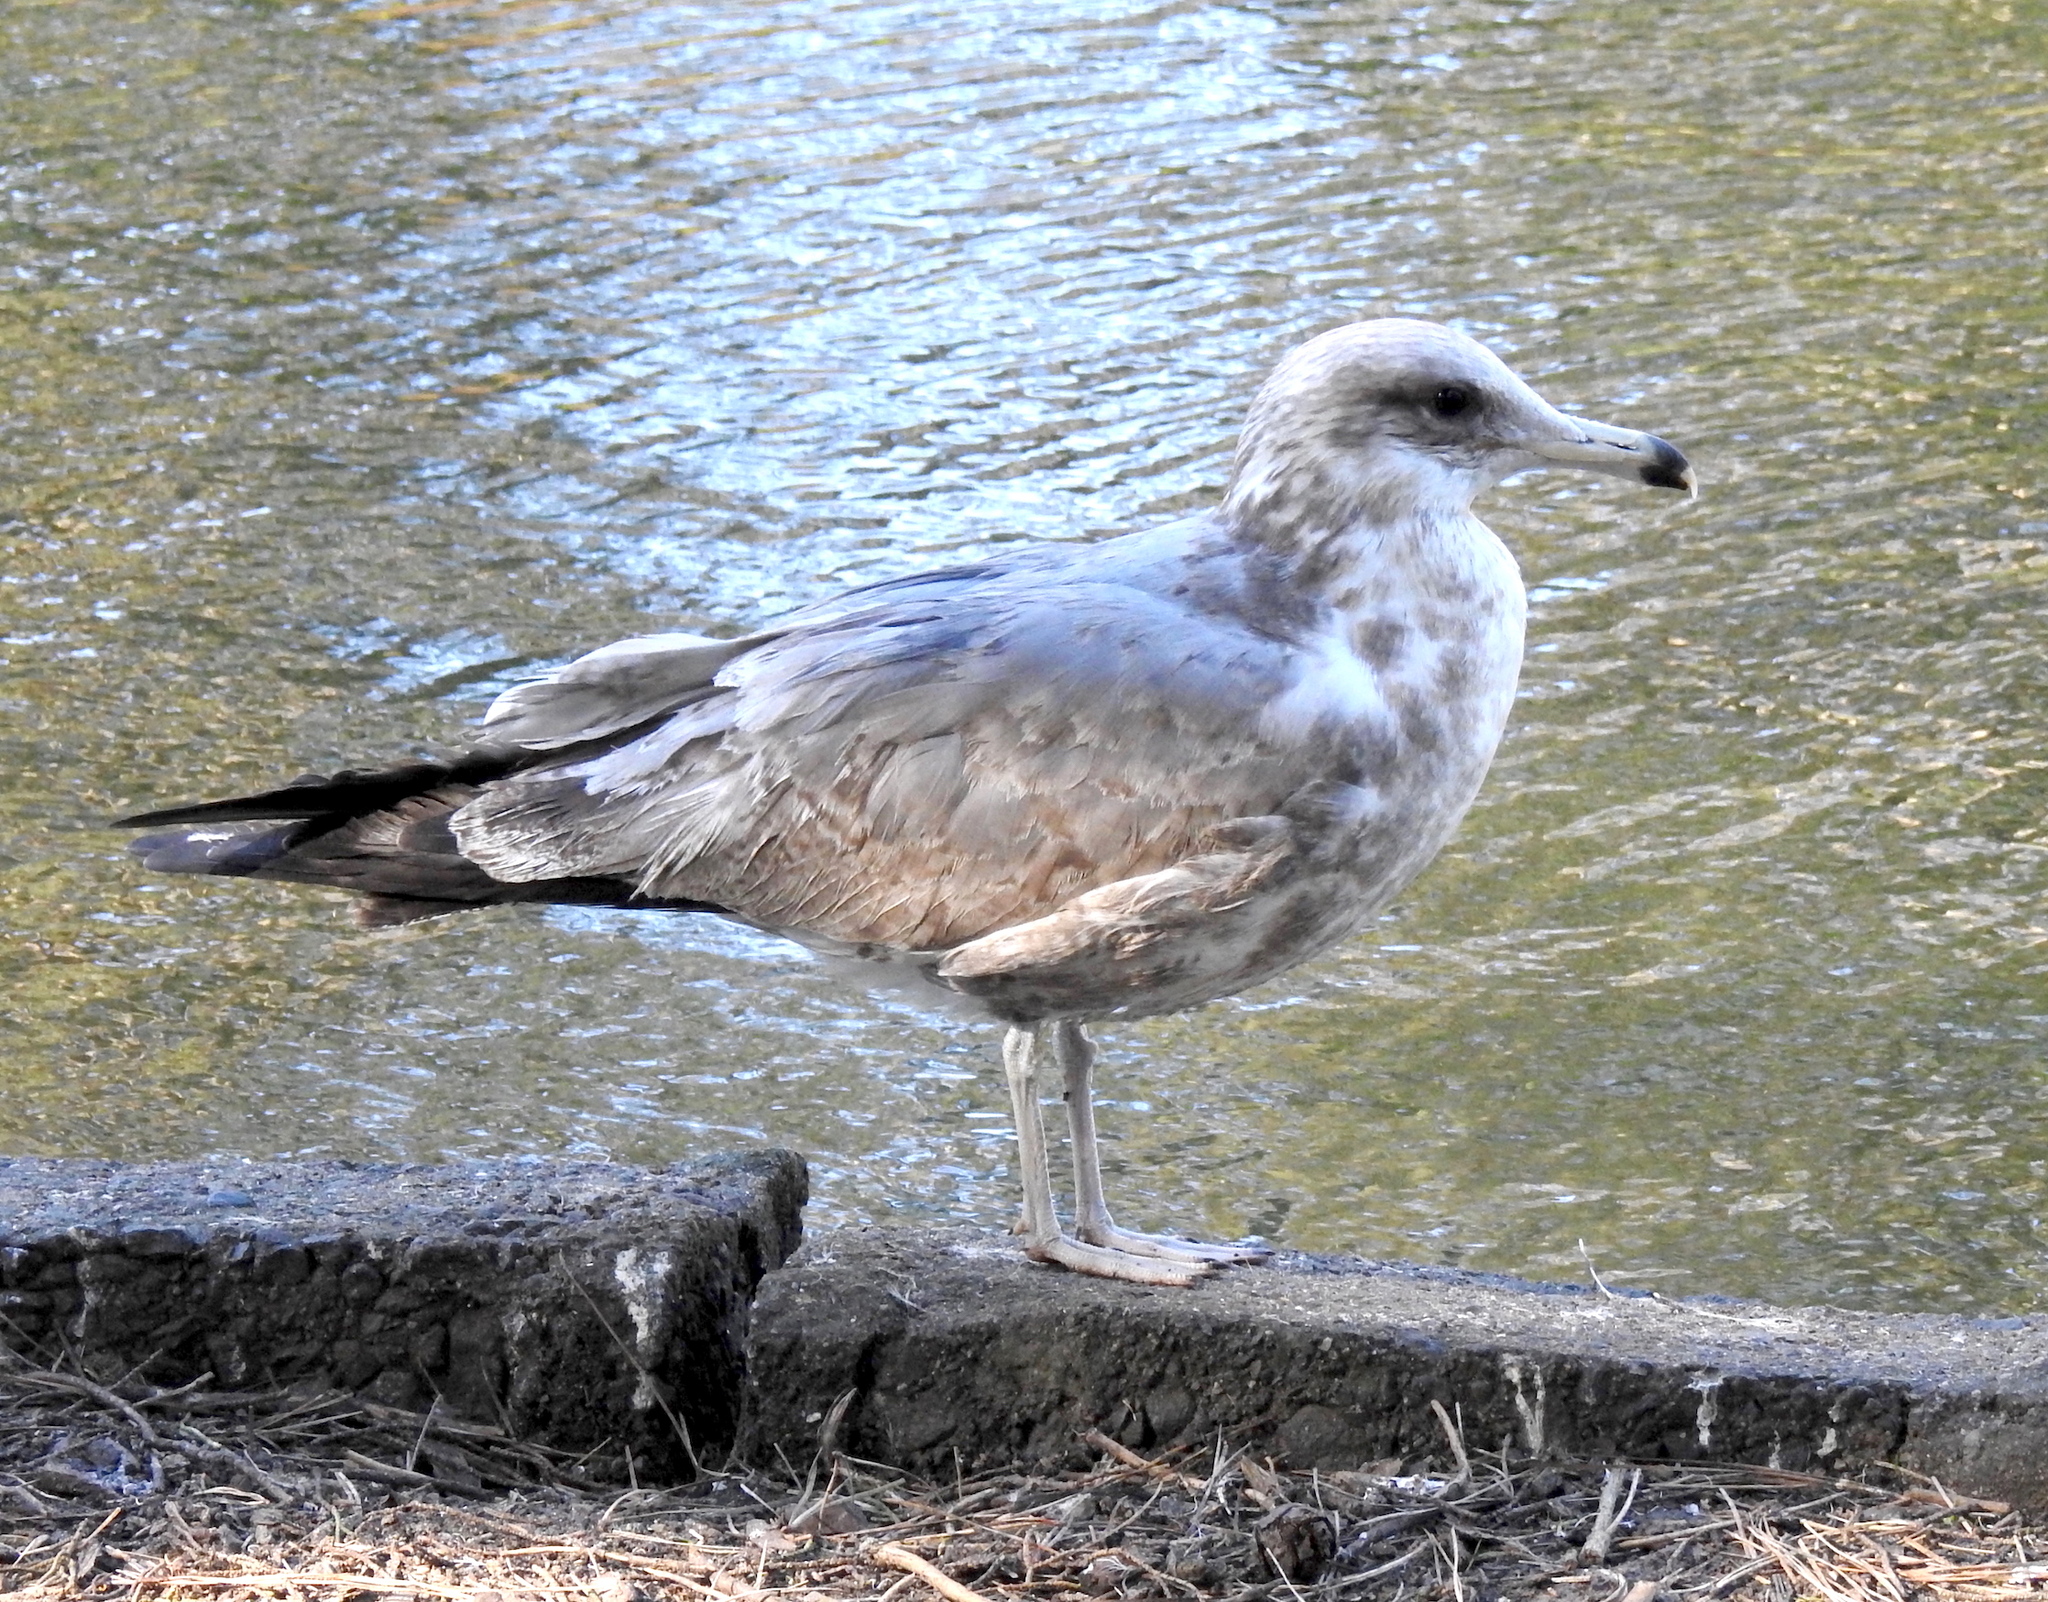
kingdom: Animalia
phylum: Chordata
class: Aves
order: Charadriiformes
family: Laridae
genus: Larus
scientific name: Larus californicus
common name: California gull
